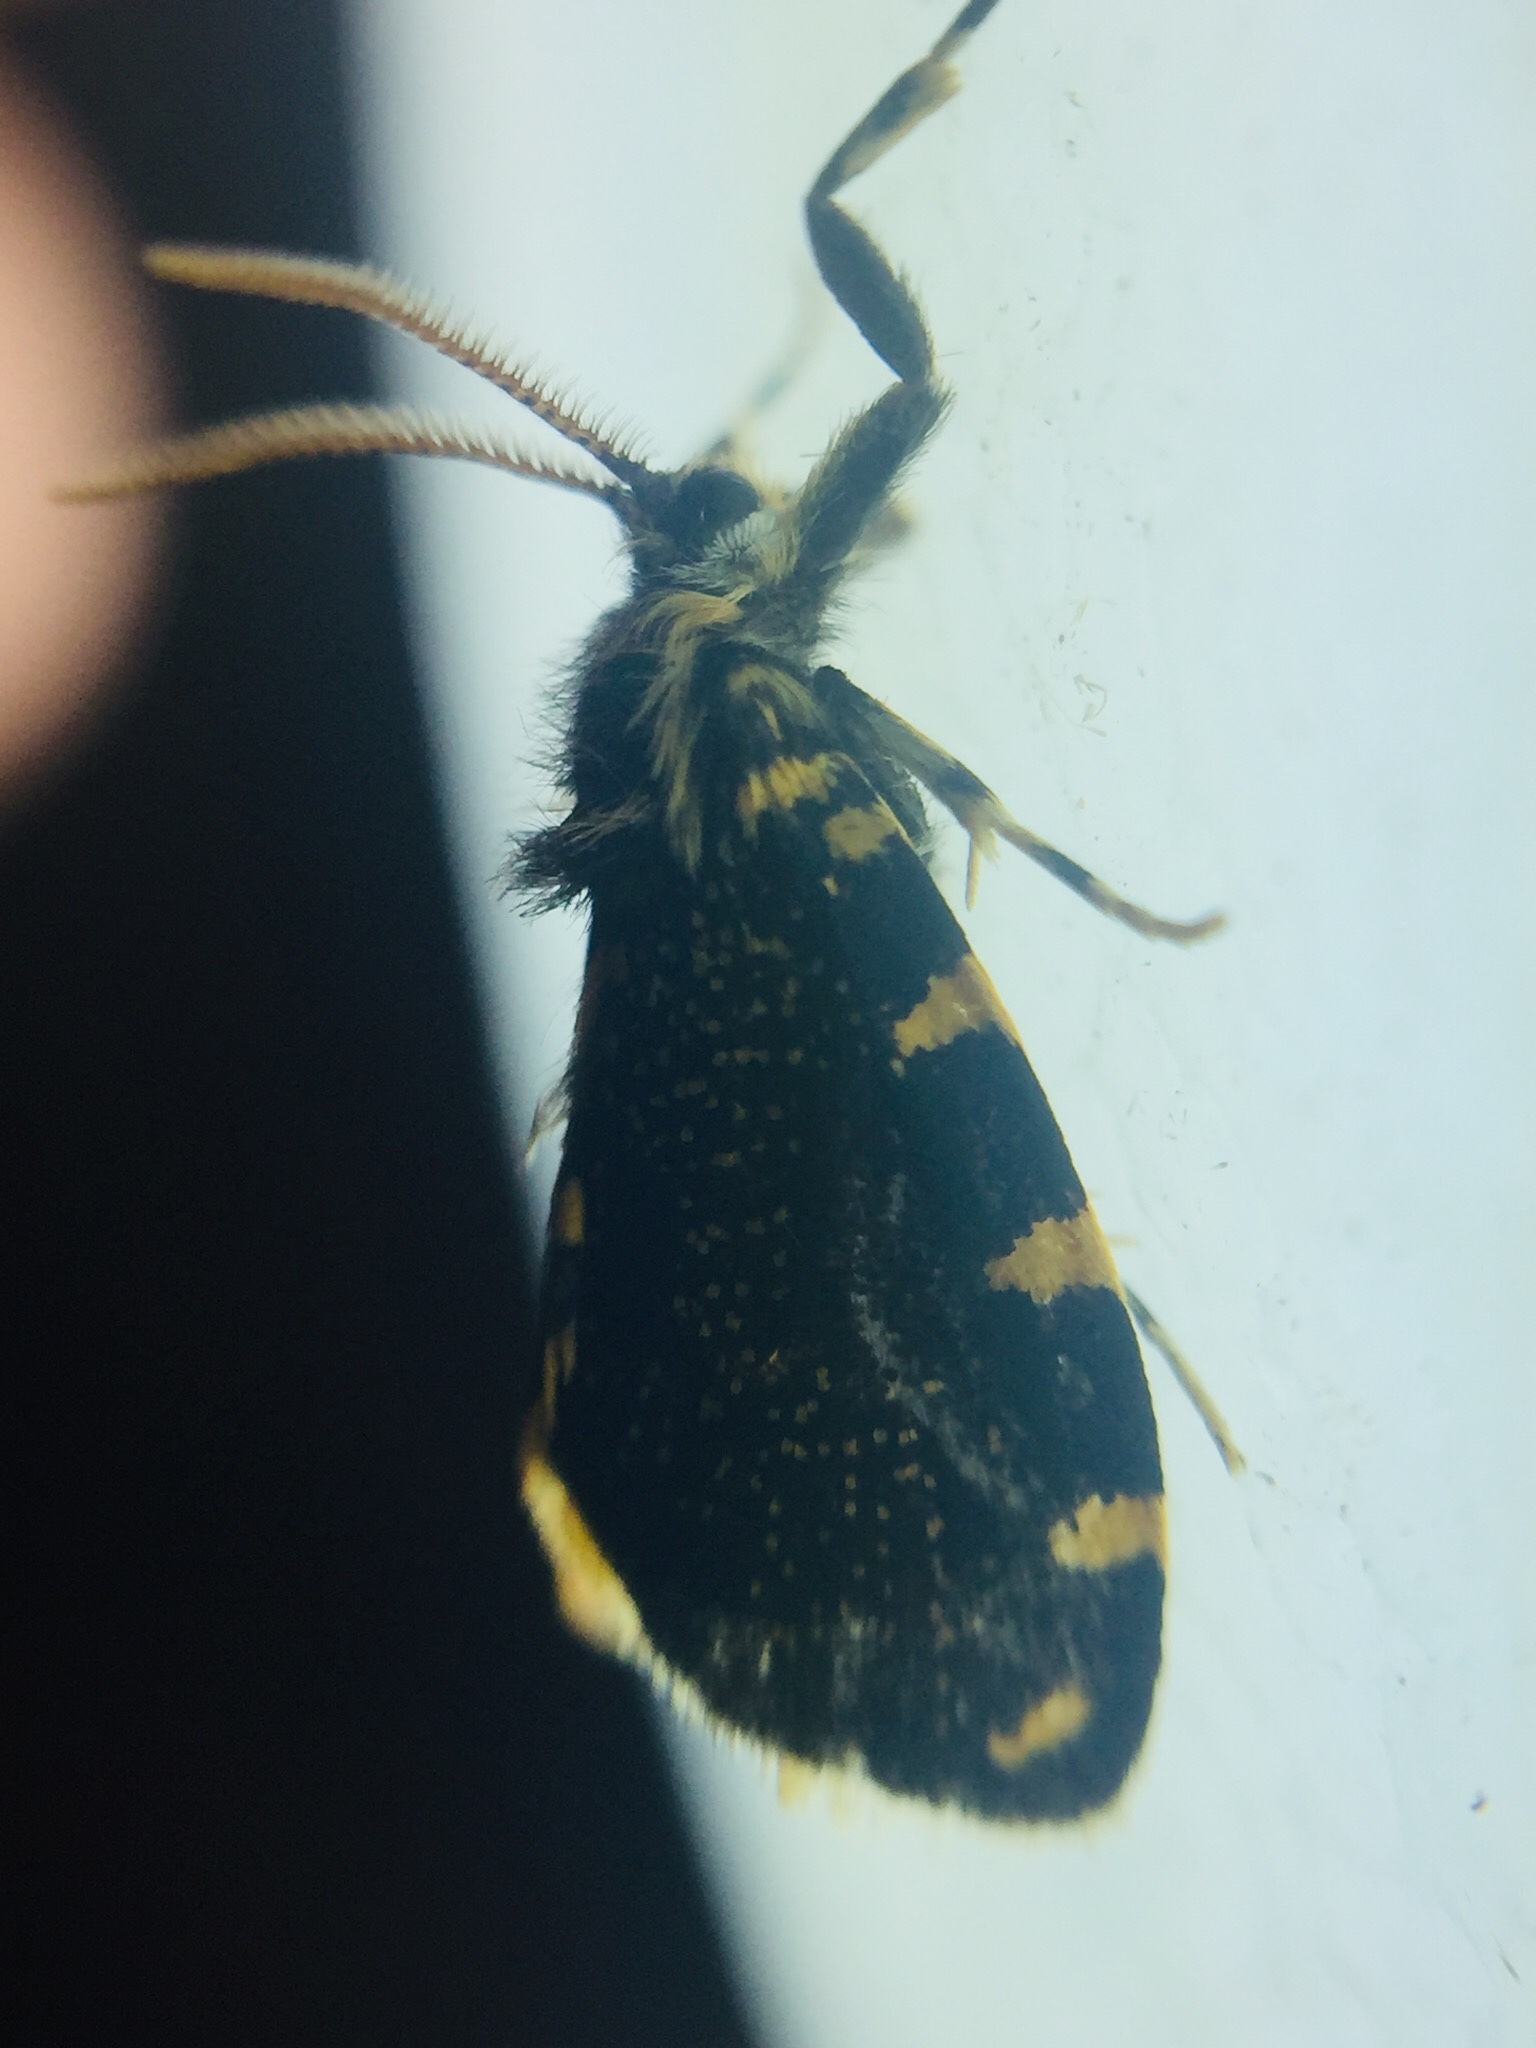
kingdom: Animalia
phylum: Arthropoda
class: Insecta
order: Lepidoptera
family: Psychidae
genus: Cebysa
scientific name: Cebysa leucotelus
